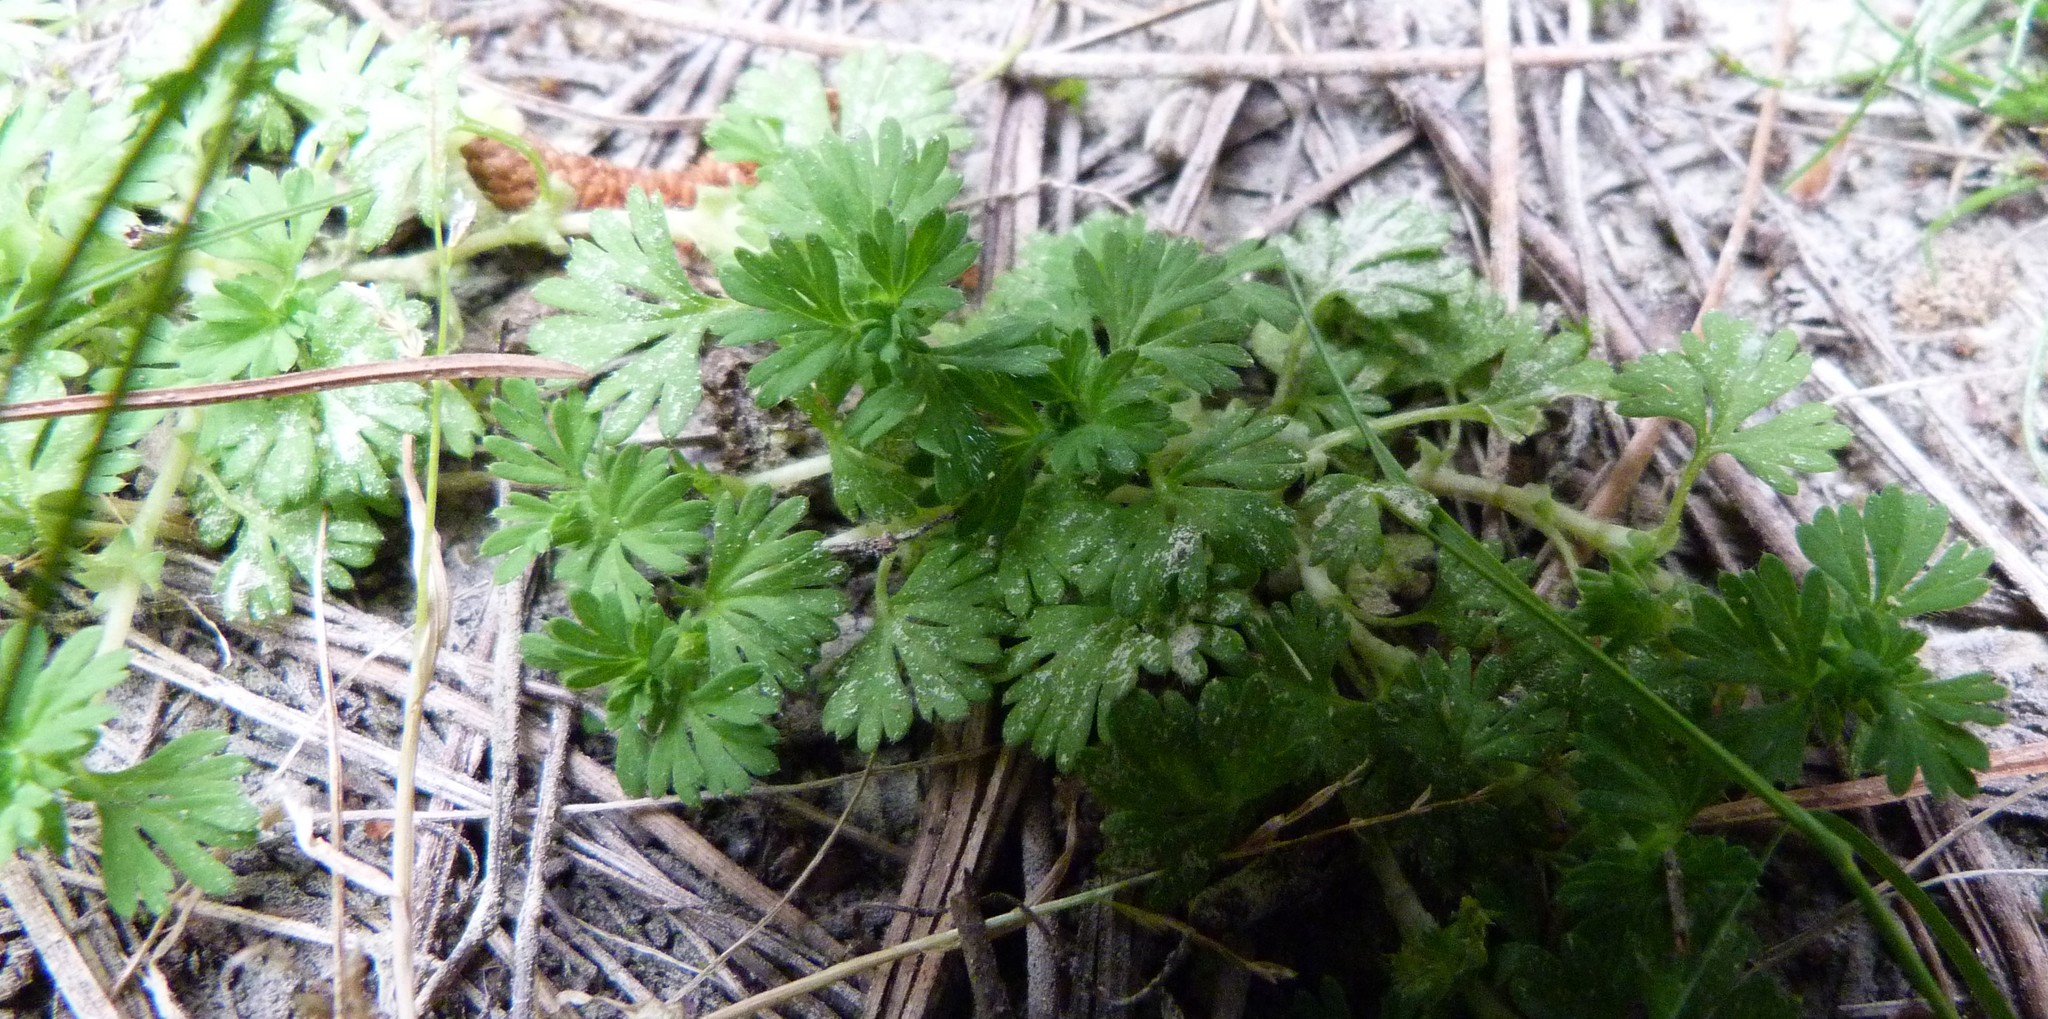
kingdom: Plantae
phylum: Tracheophyta
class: Magnoliopsida
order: Rosales
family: Rosaceae
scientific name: Rosaceae
